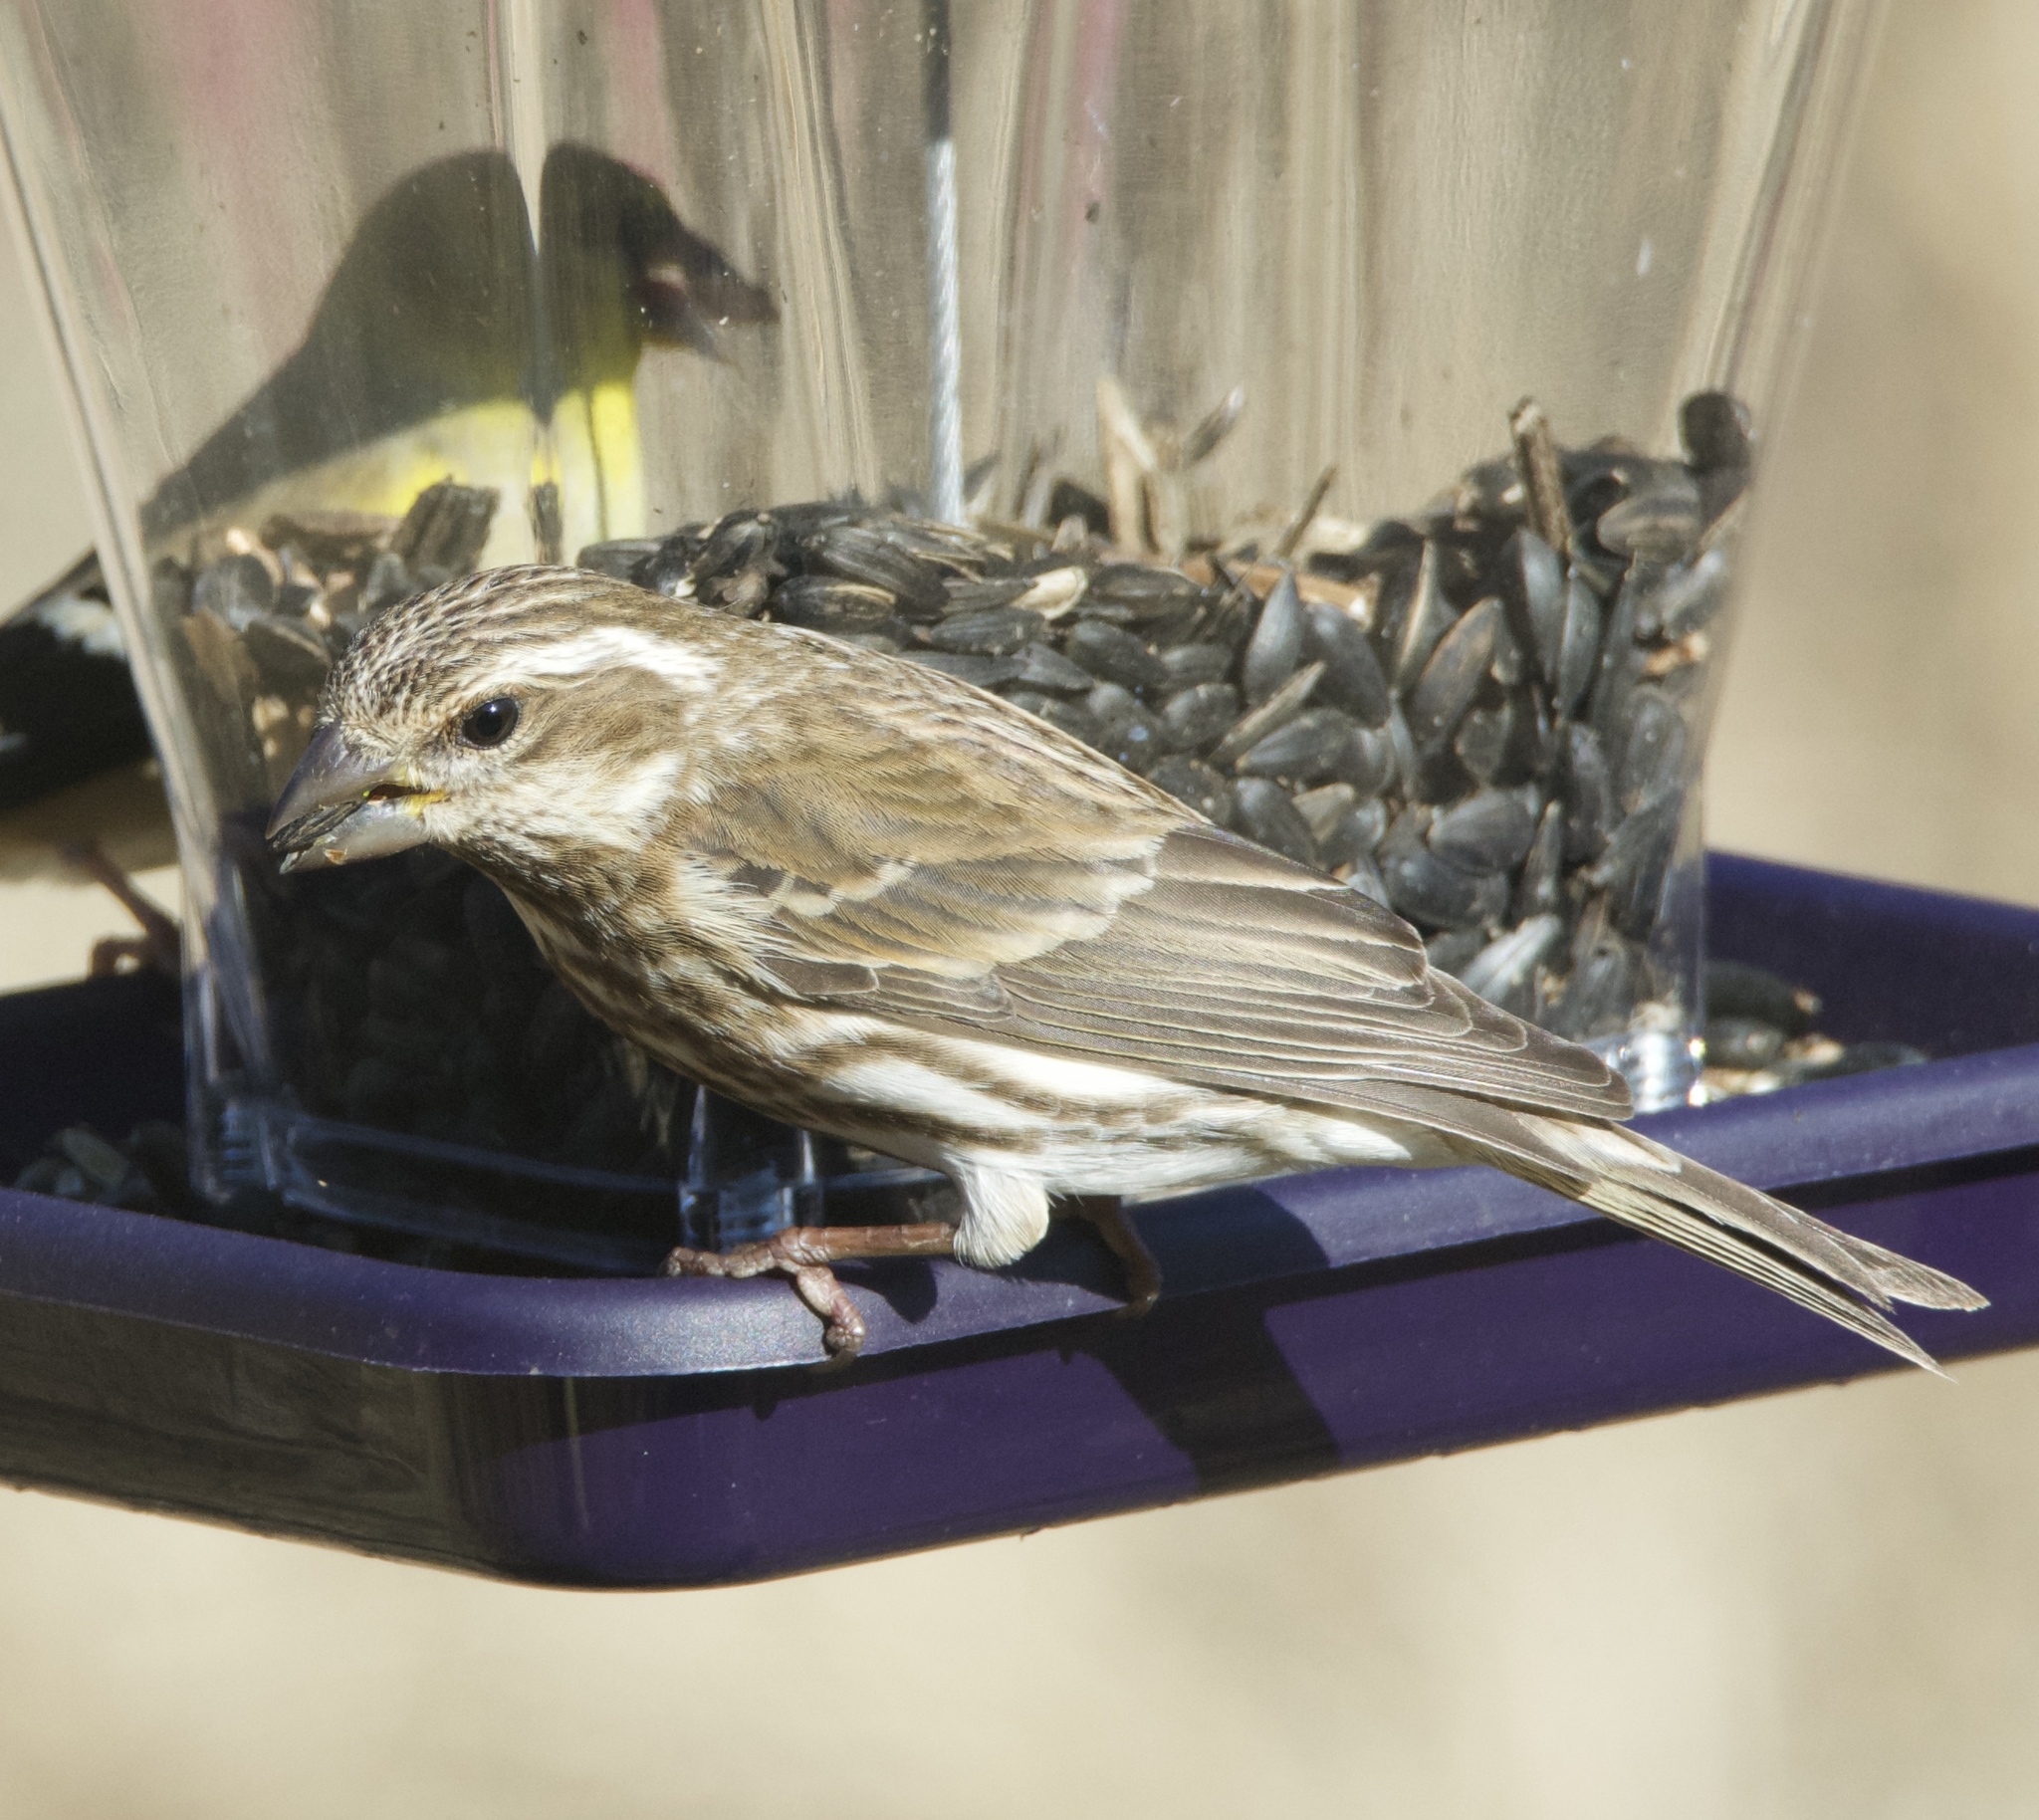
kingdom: Animalia
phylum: Chordata
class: Aves
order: Passeriformes
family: Fringillidae
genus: Haemorhous
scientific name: Haemorhous purpureus
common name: Purple finch
